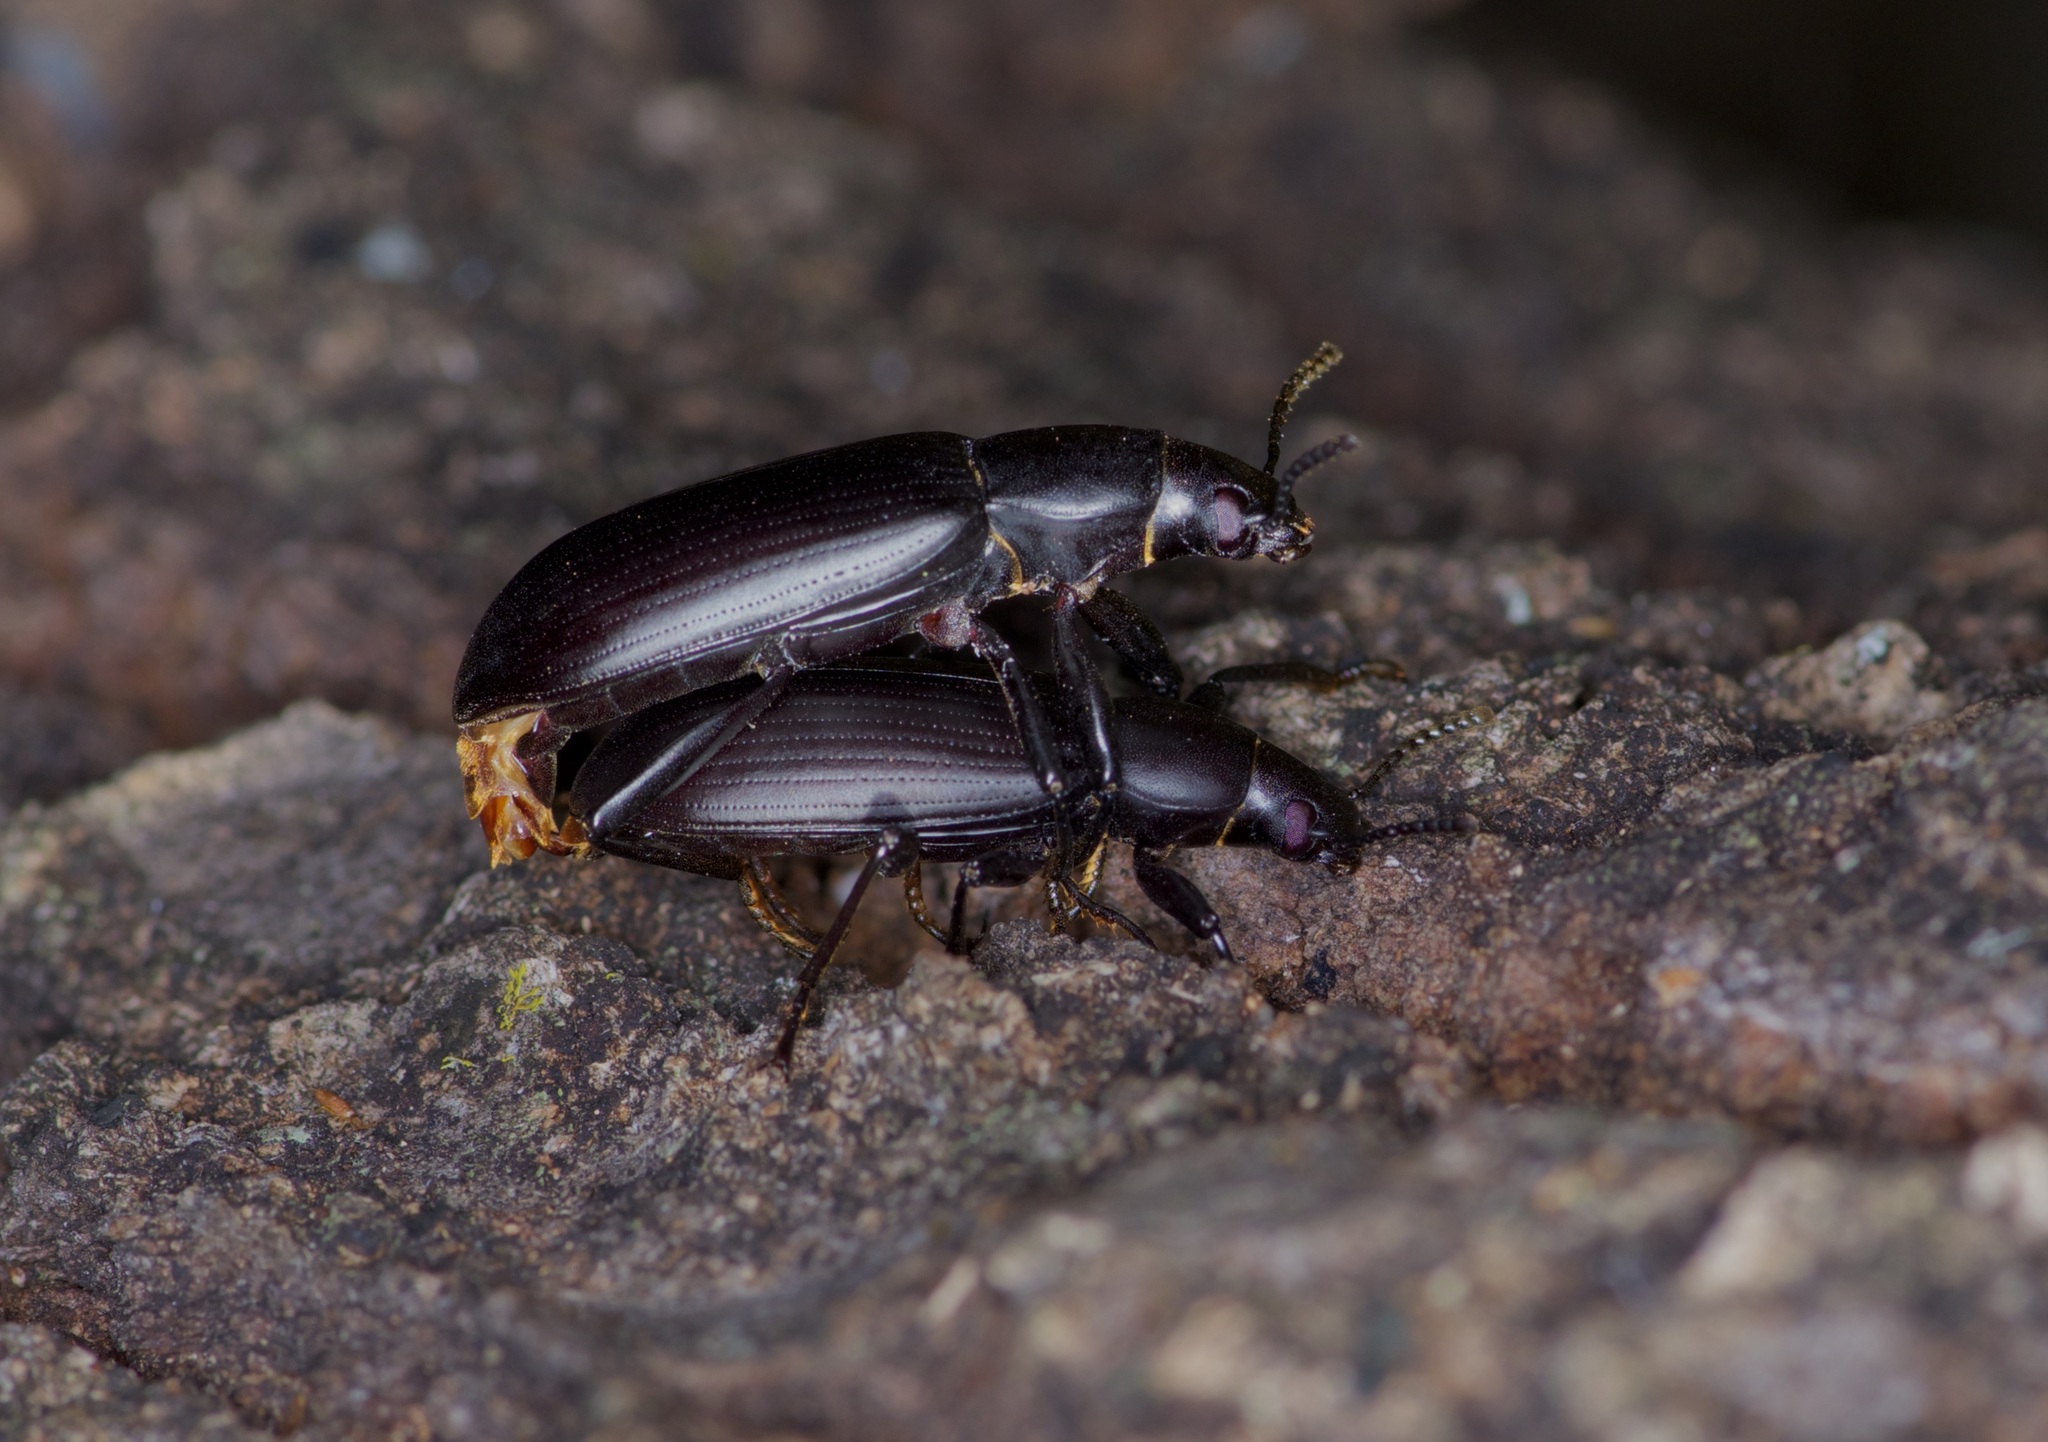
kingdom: Animalia
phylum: Arthropoda
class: Insecta
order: Coleoptera
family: Tenebrionidae
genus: Alobates
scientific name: Alobates
